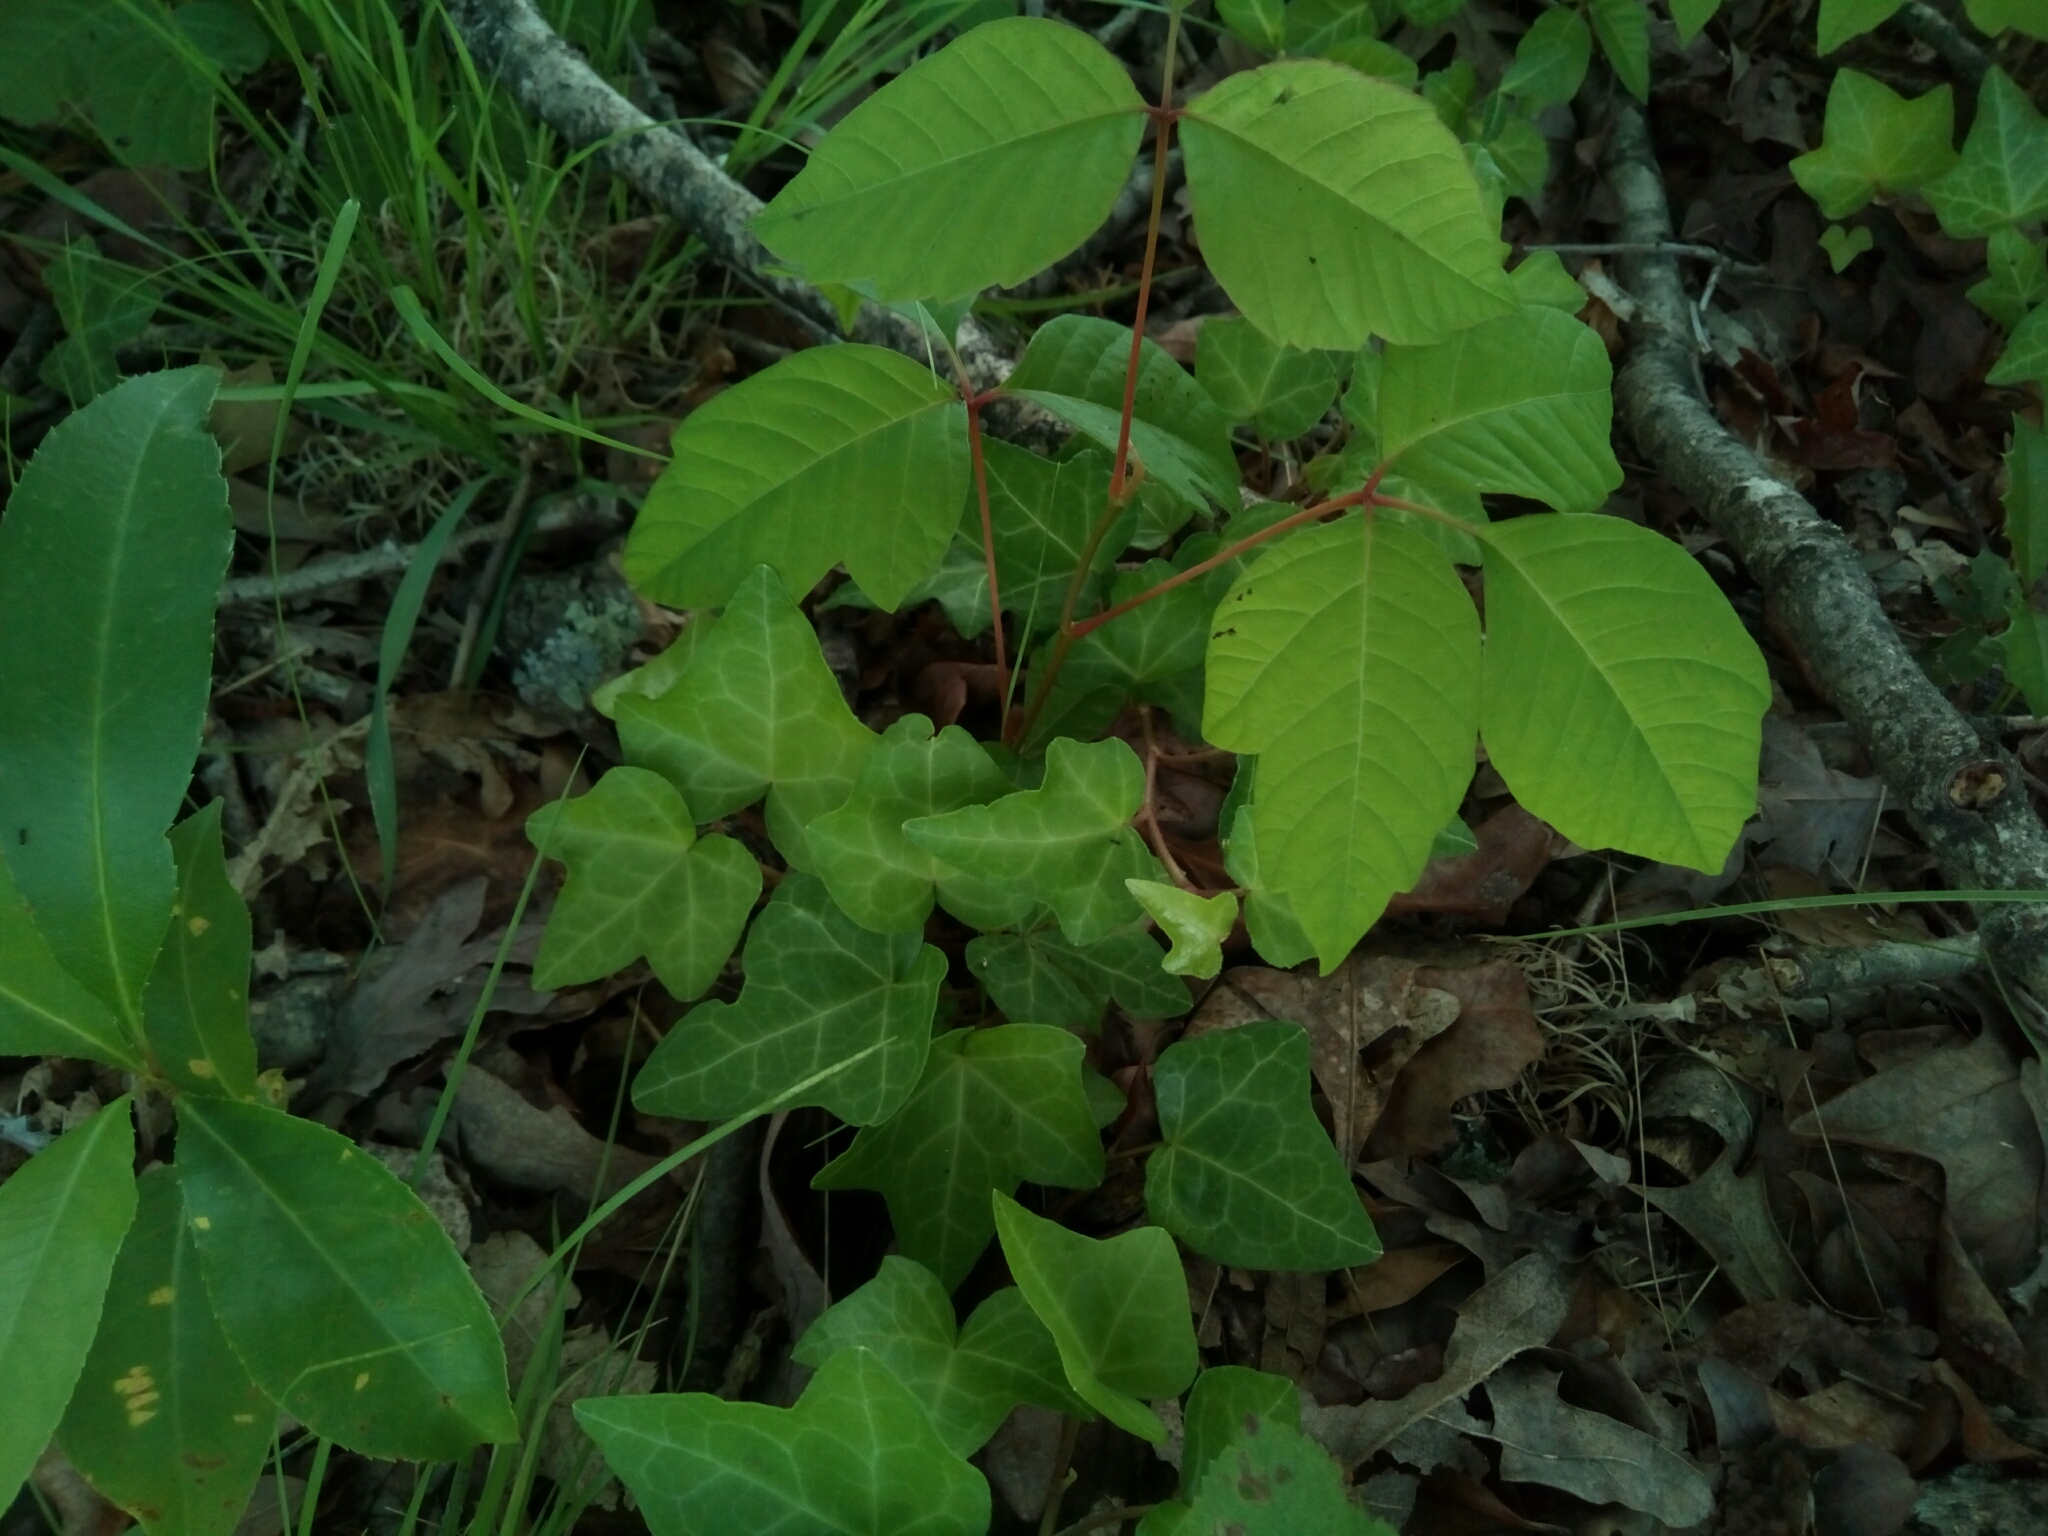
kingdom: Plantae
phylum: Tracheophyta
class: Magnoliopsida
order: Sapindales
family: Anacardiaceae
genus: Toxicodendron
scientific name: Toxicodendron radicans
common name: Poison ivy
